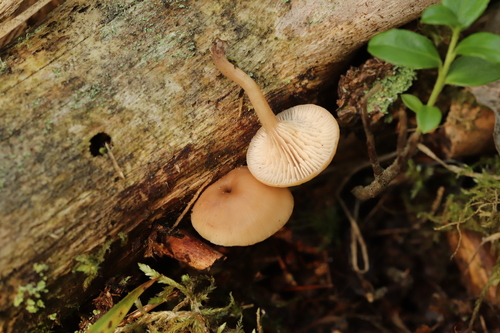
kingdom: Fungi
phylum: Basidiomycota
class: Agaricomycetes
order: Russulales
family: Auriscalpiaceae
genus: Lentinellus
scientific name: Lentinellus micheneri
